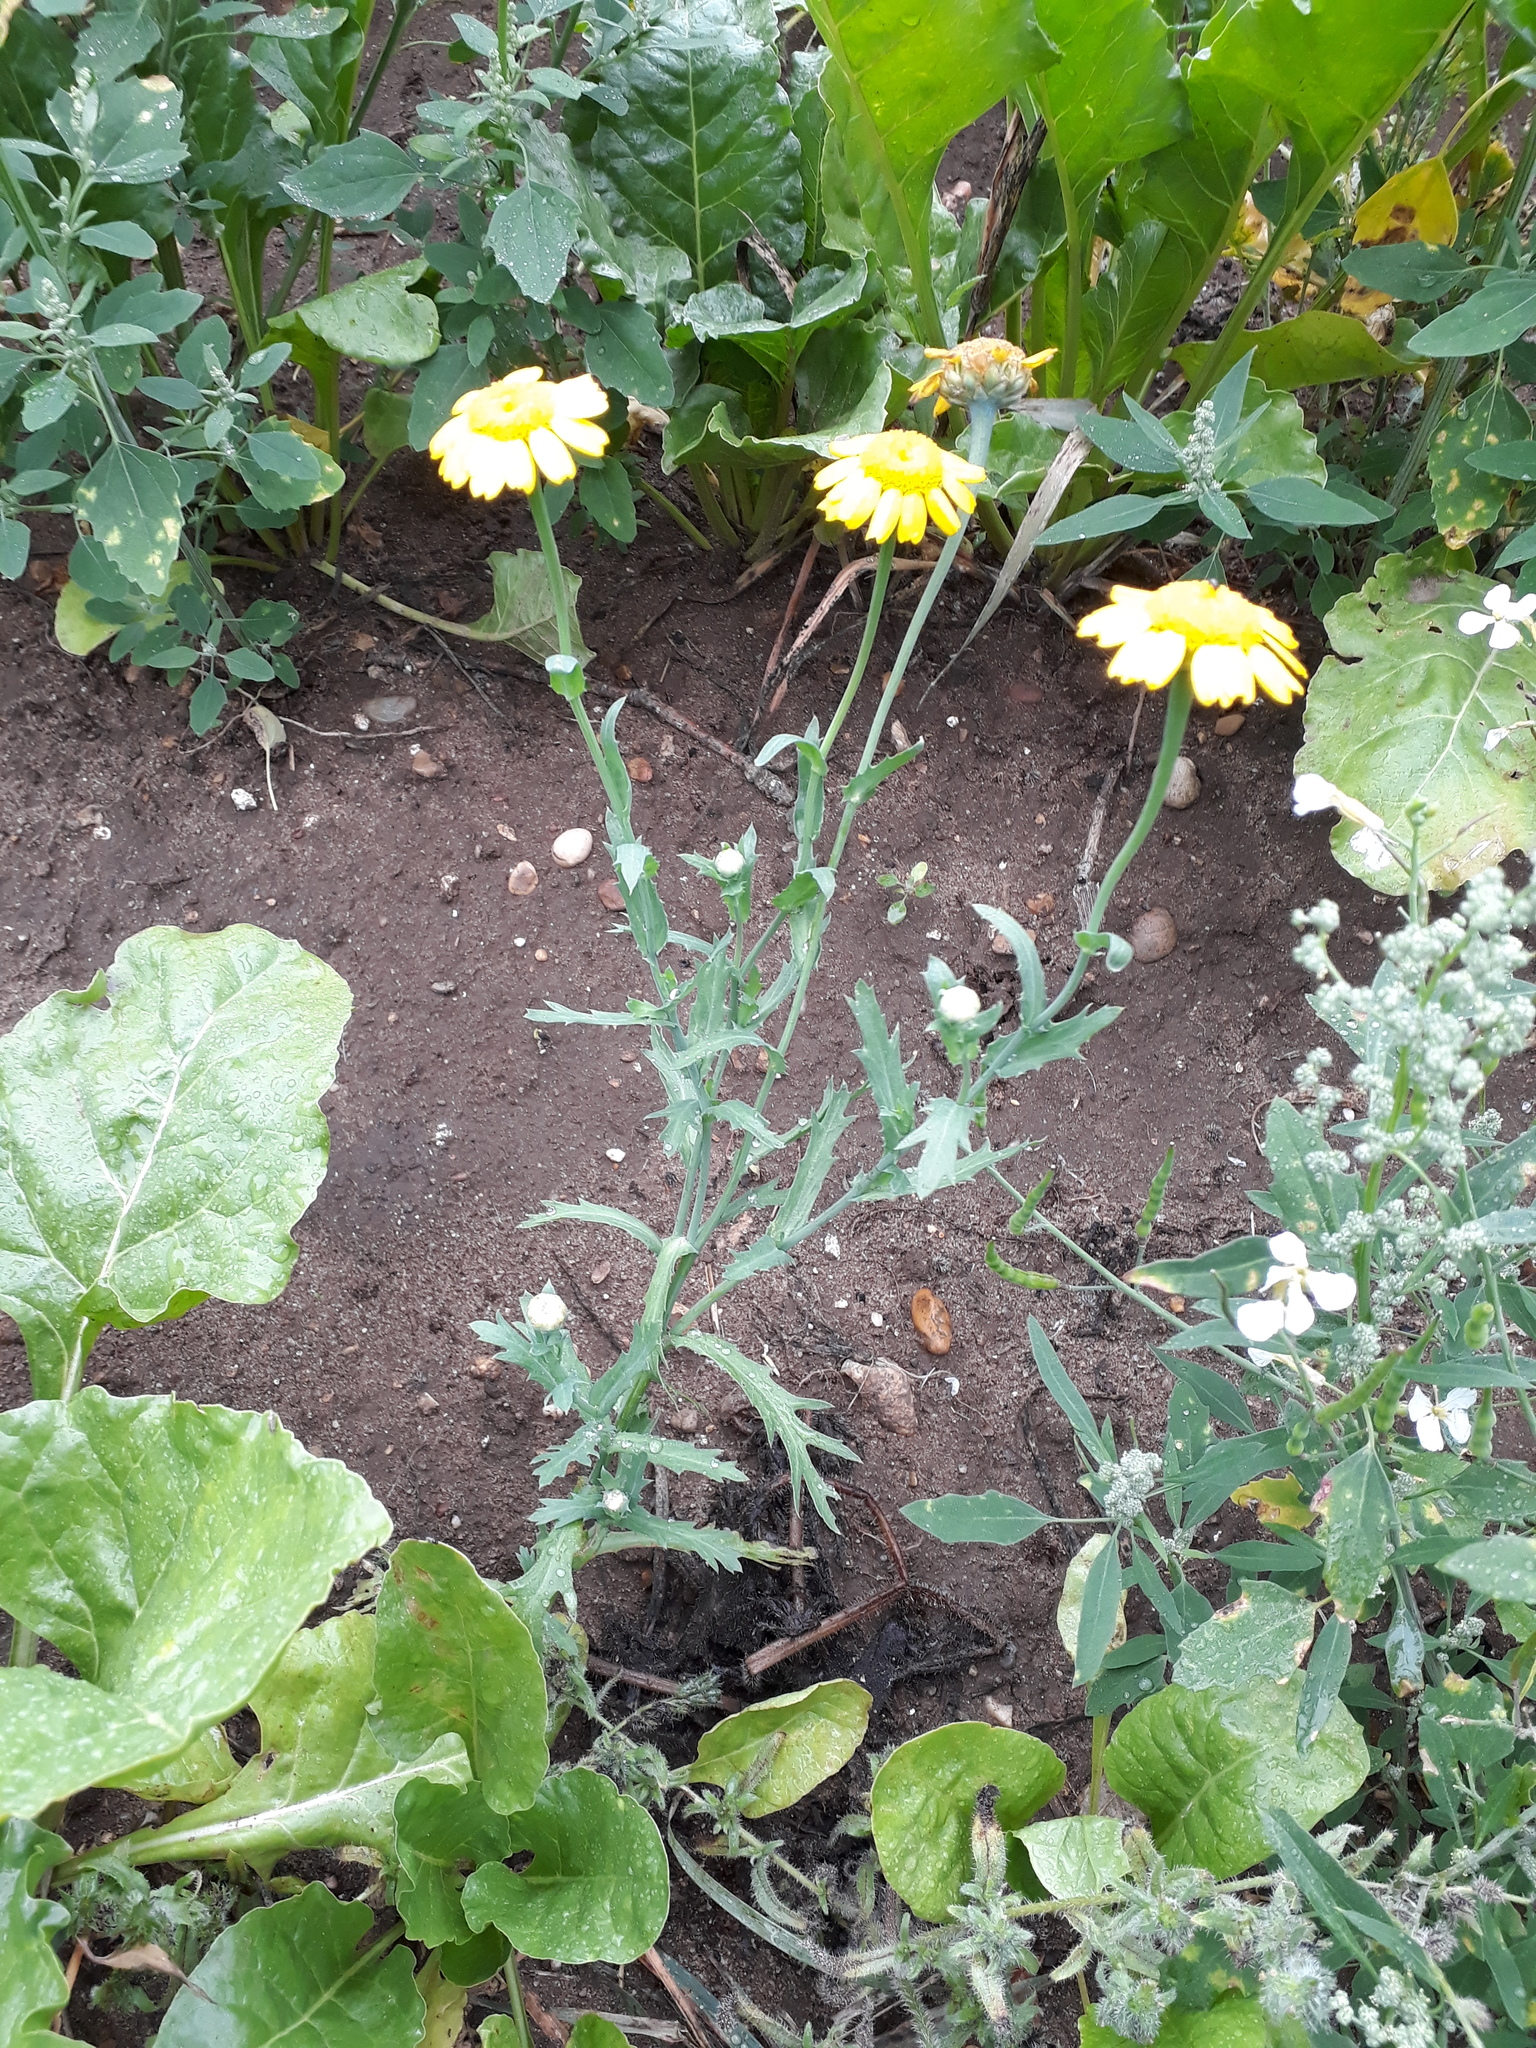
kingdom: Plantae
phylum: Tracheophyta
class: Magnoliopsida
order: Asterales
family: Asteraceae
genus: Glebionis
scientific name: Glebionis segetum
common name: Corndaisy
